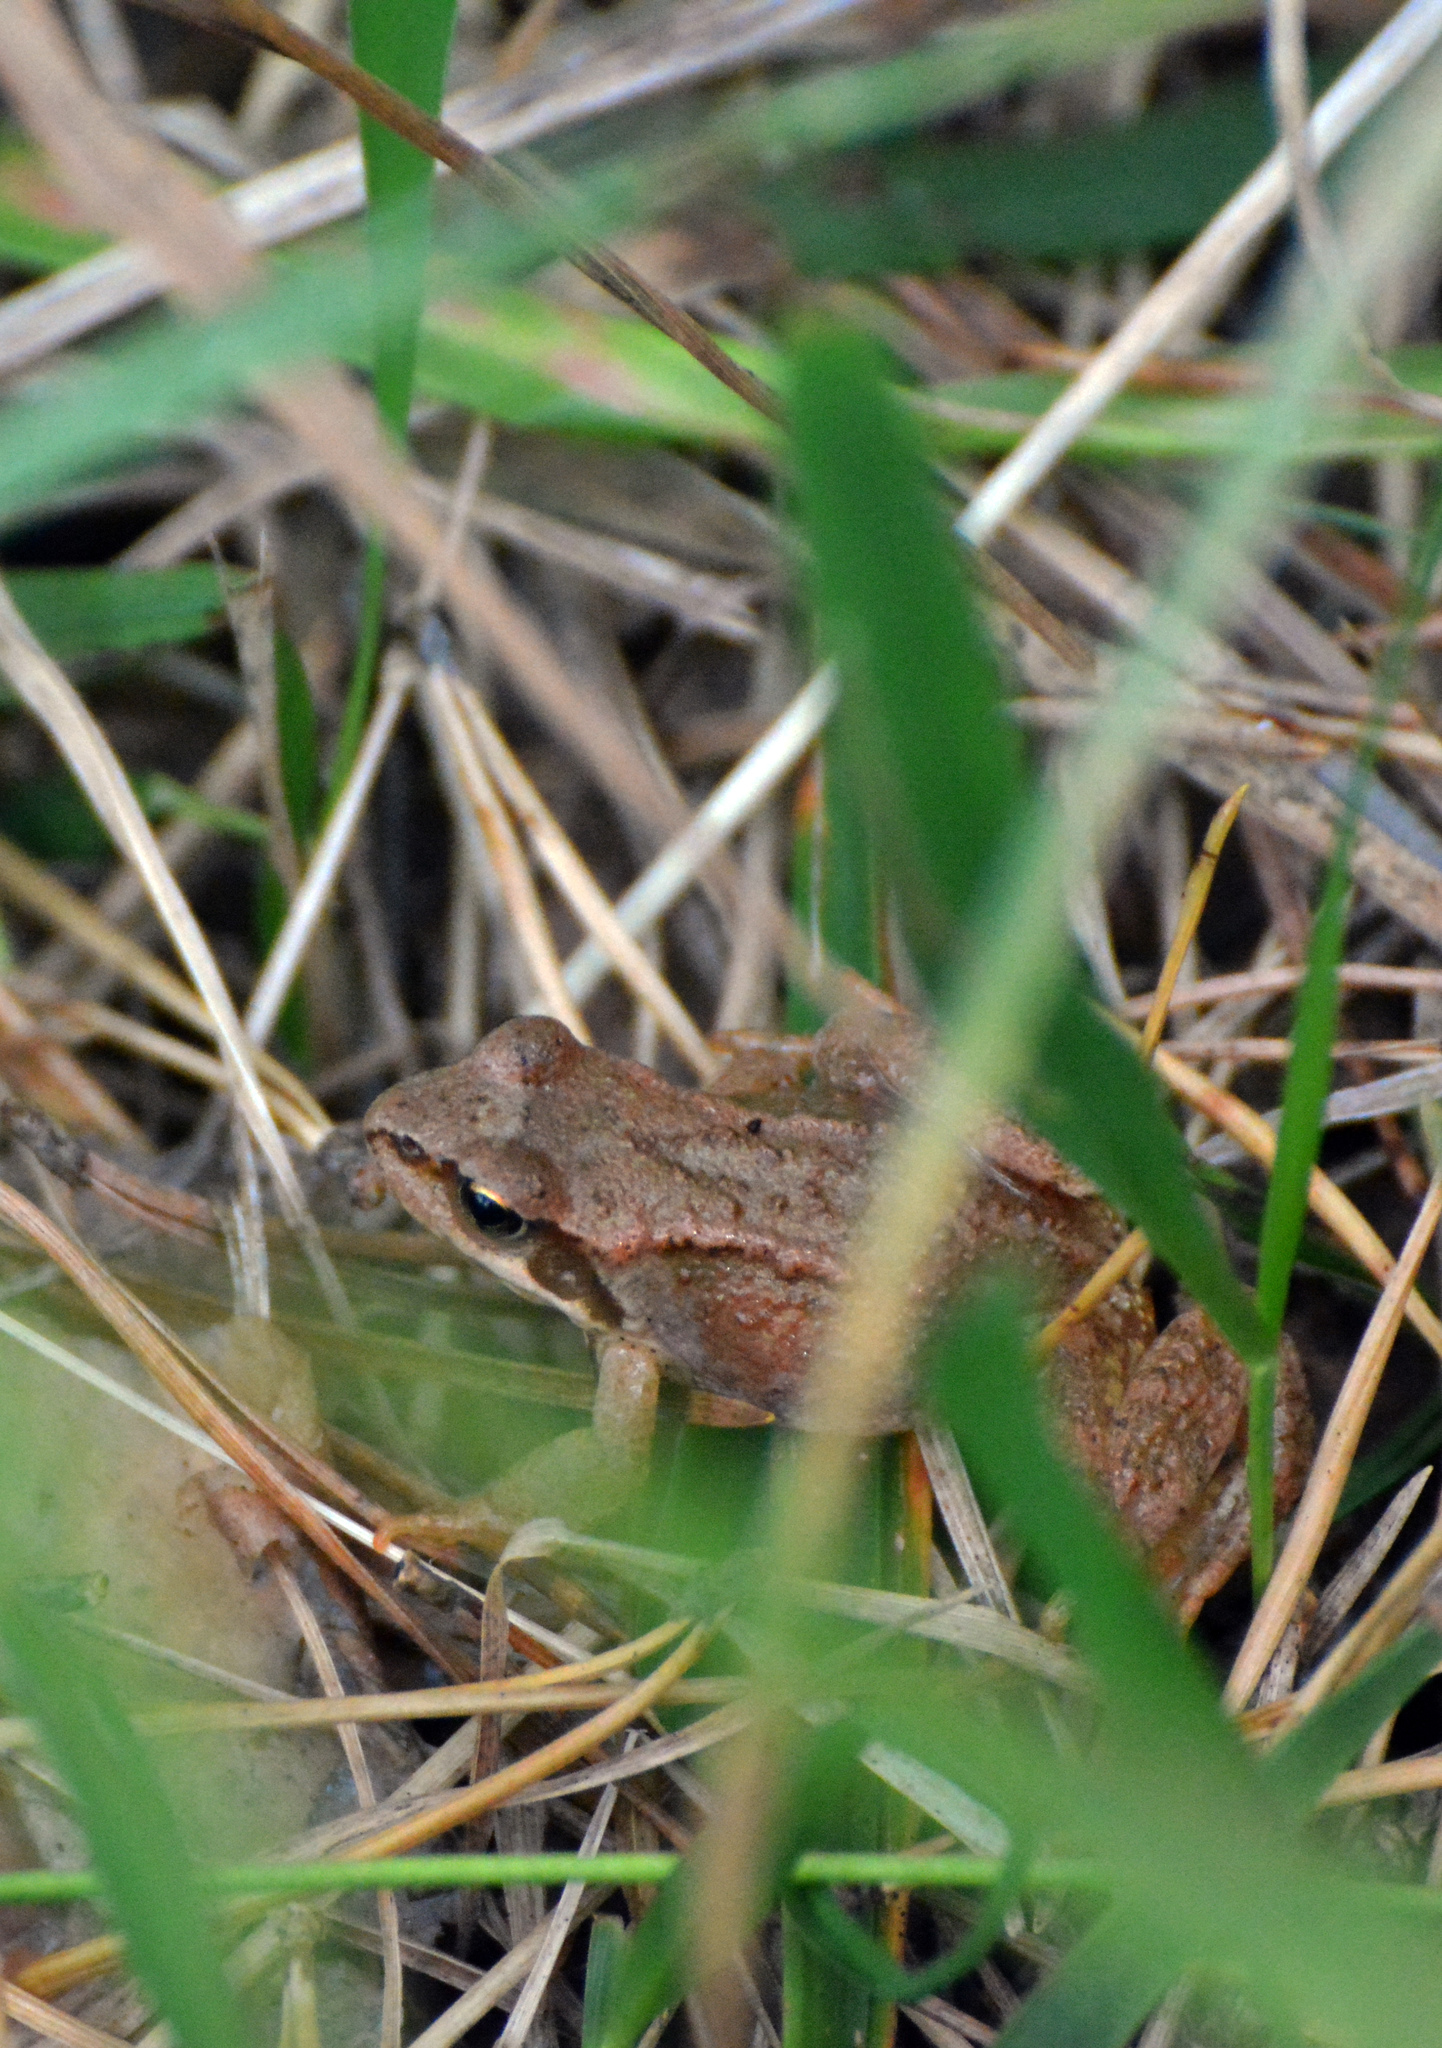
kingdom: Animalia
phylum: Chordata
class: Amphibia
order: Anura
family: Ranidae
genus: Rana
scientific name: Rana temporaria
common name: Common frog
